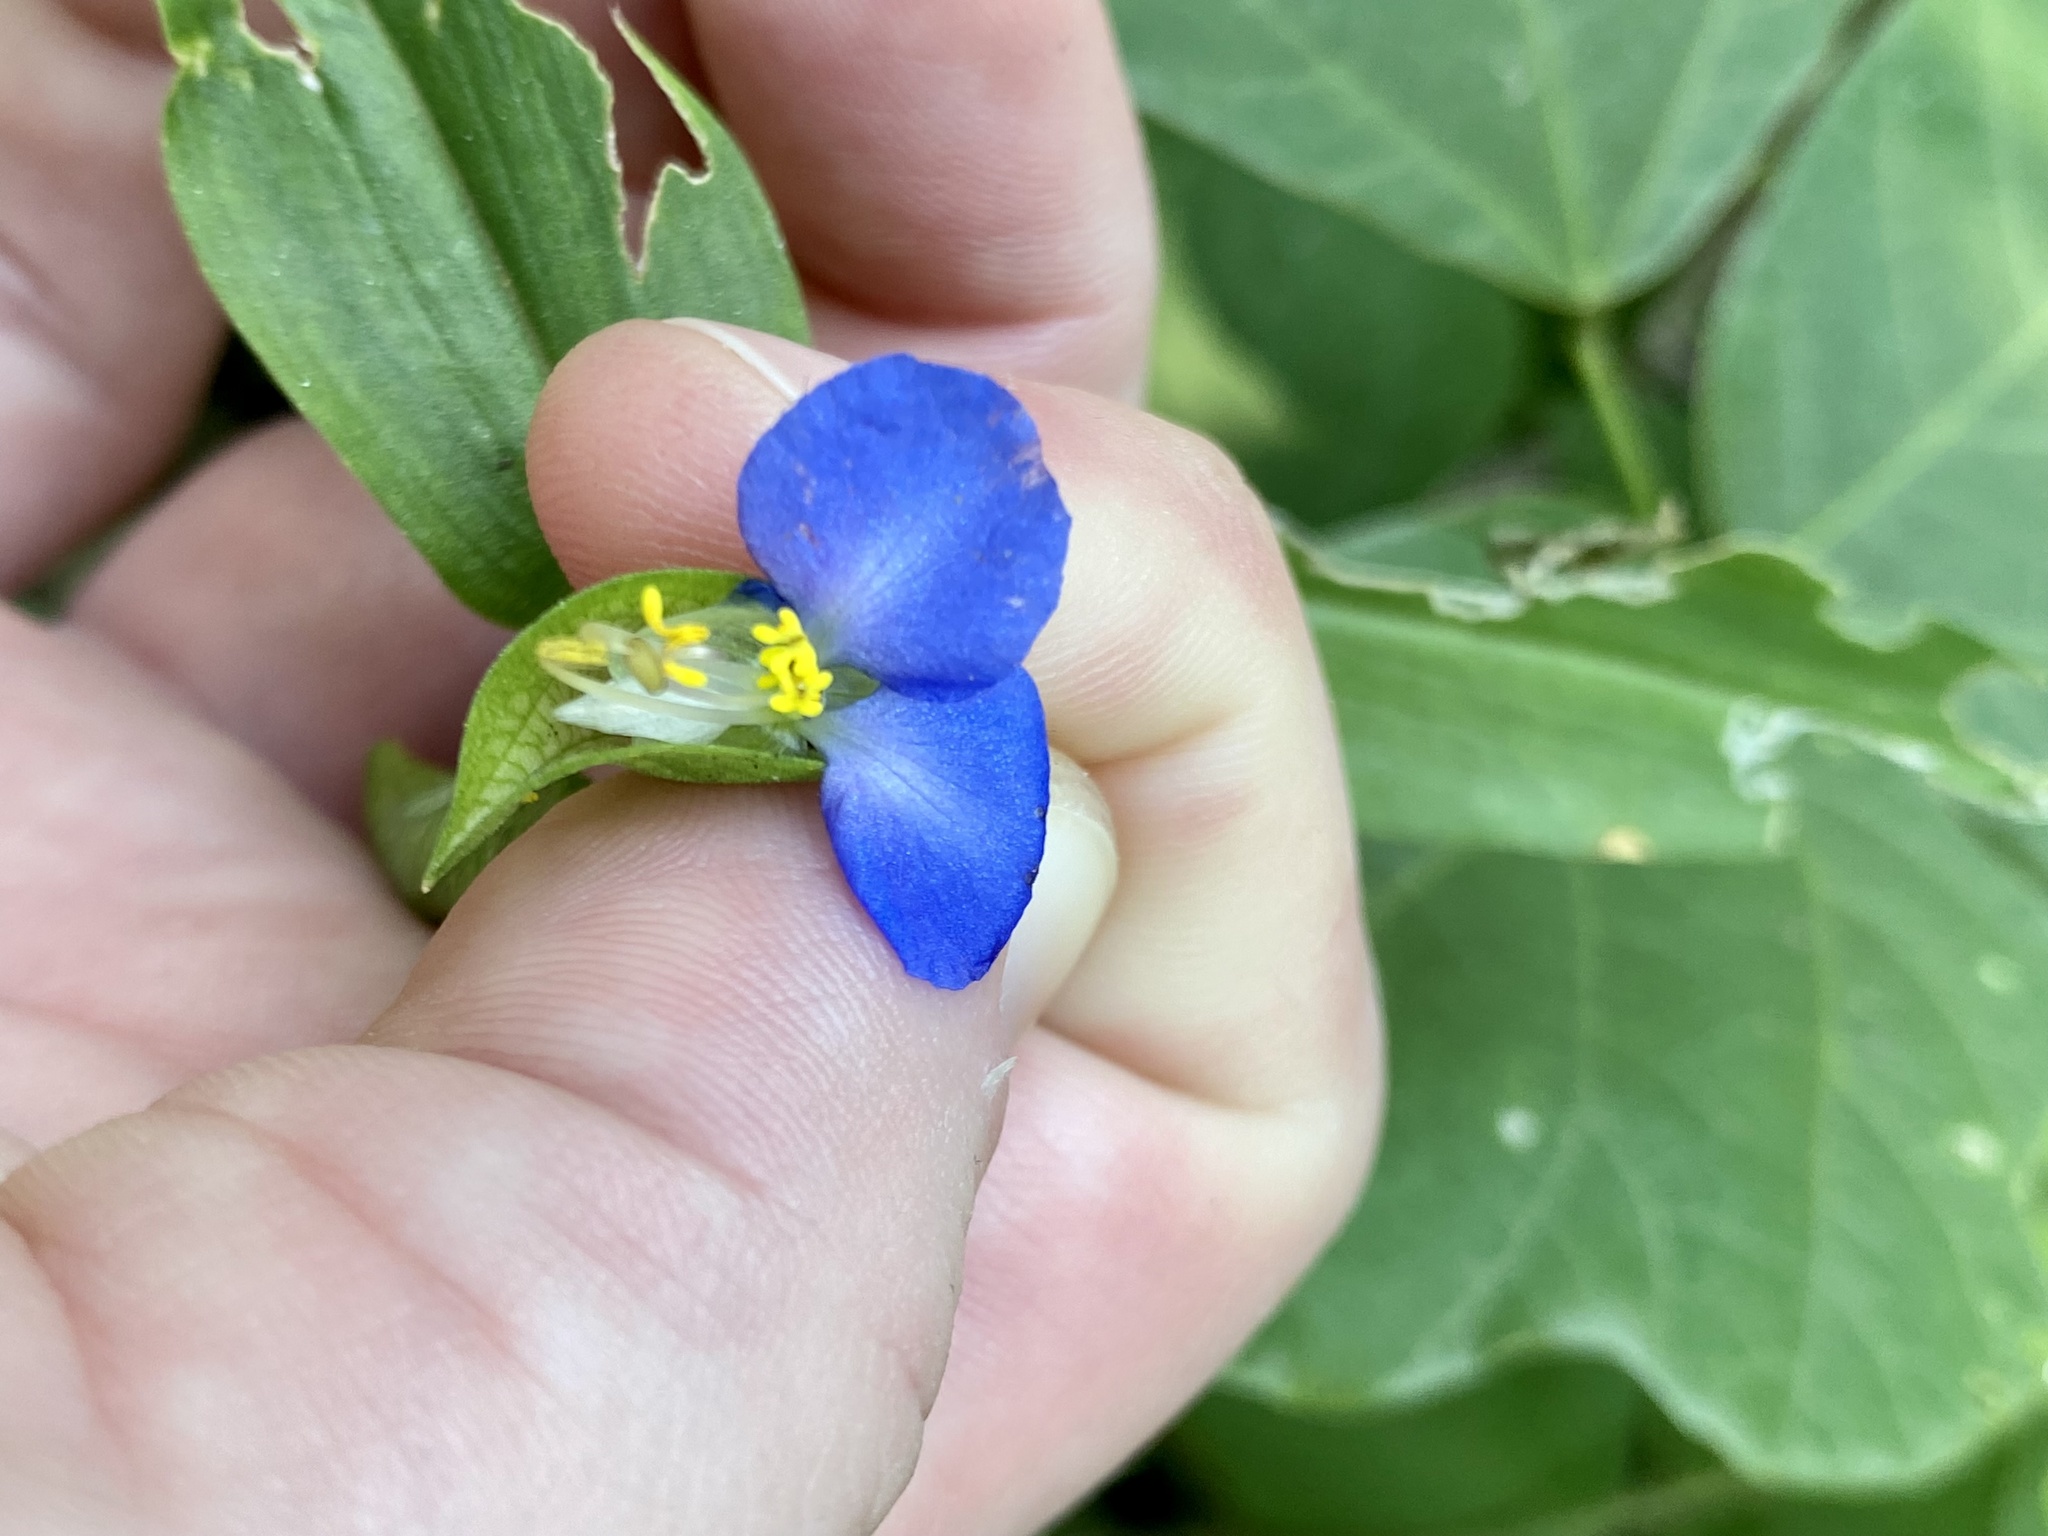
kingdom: Plantae
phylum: Tracheophyta
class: Liliopsida
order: Commelinales
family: Commelinaceae
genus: Commelina
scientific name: Commelina communis
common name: Asiatic dayflower
